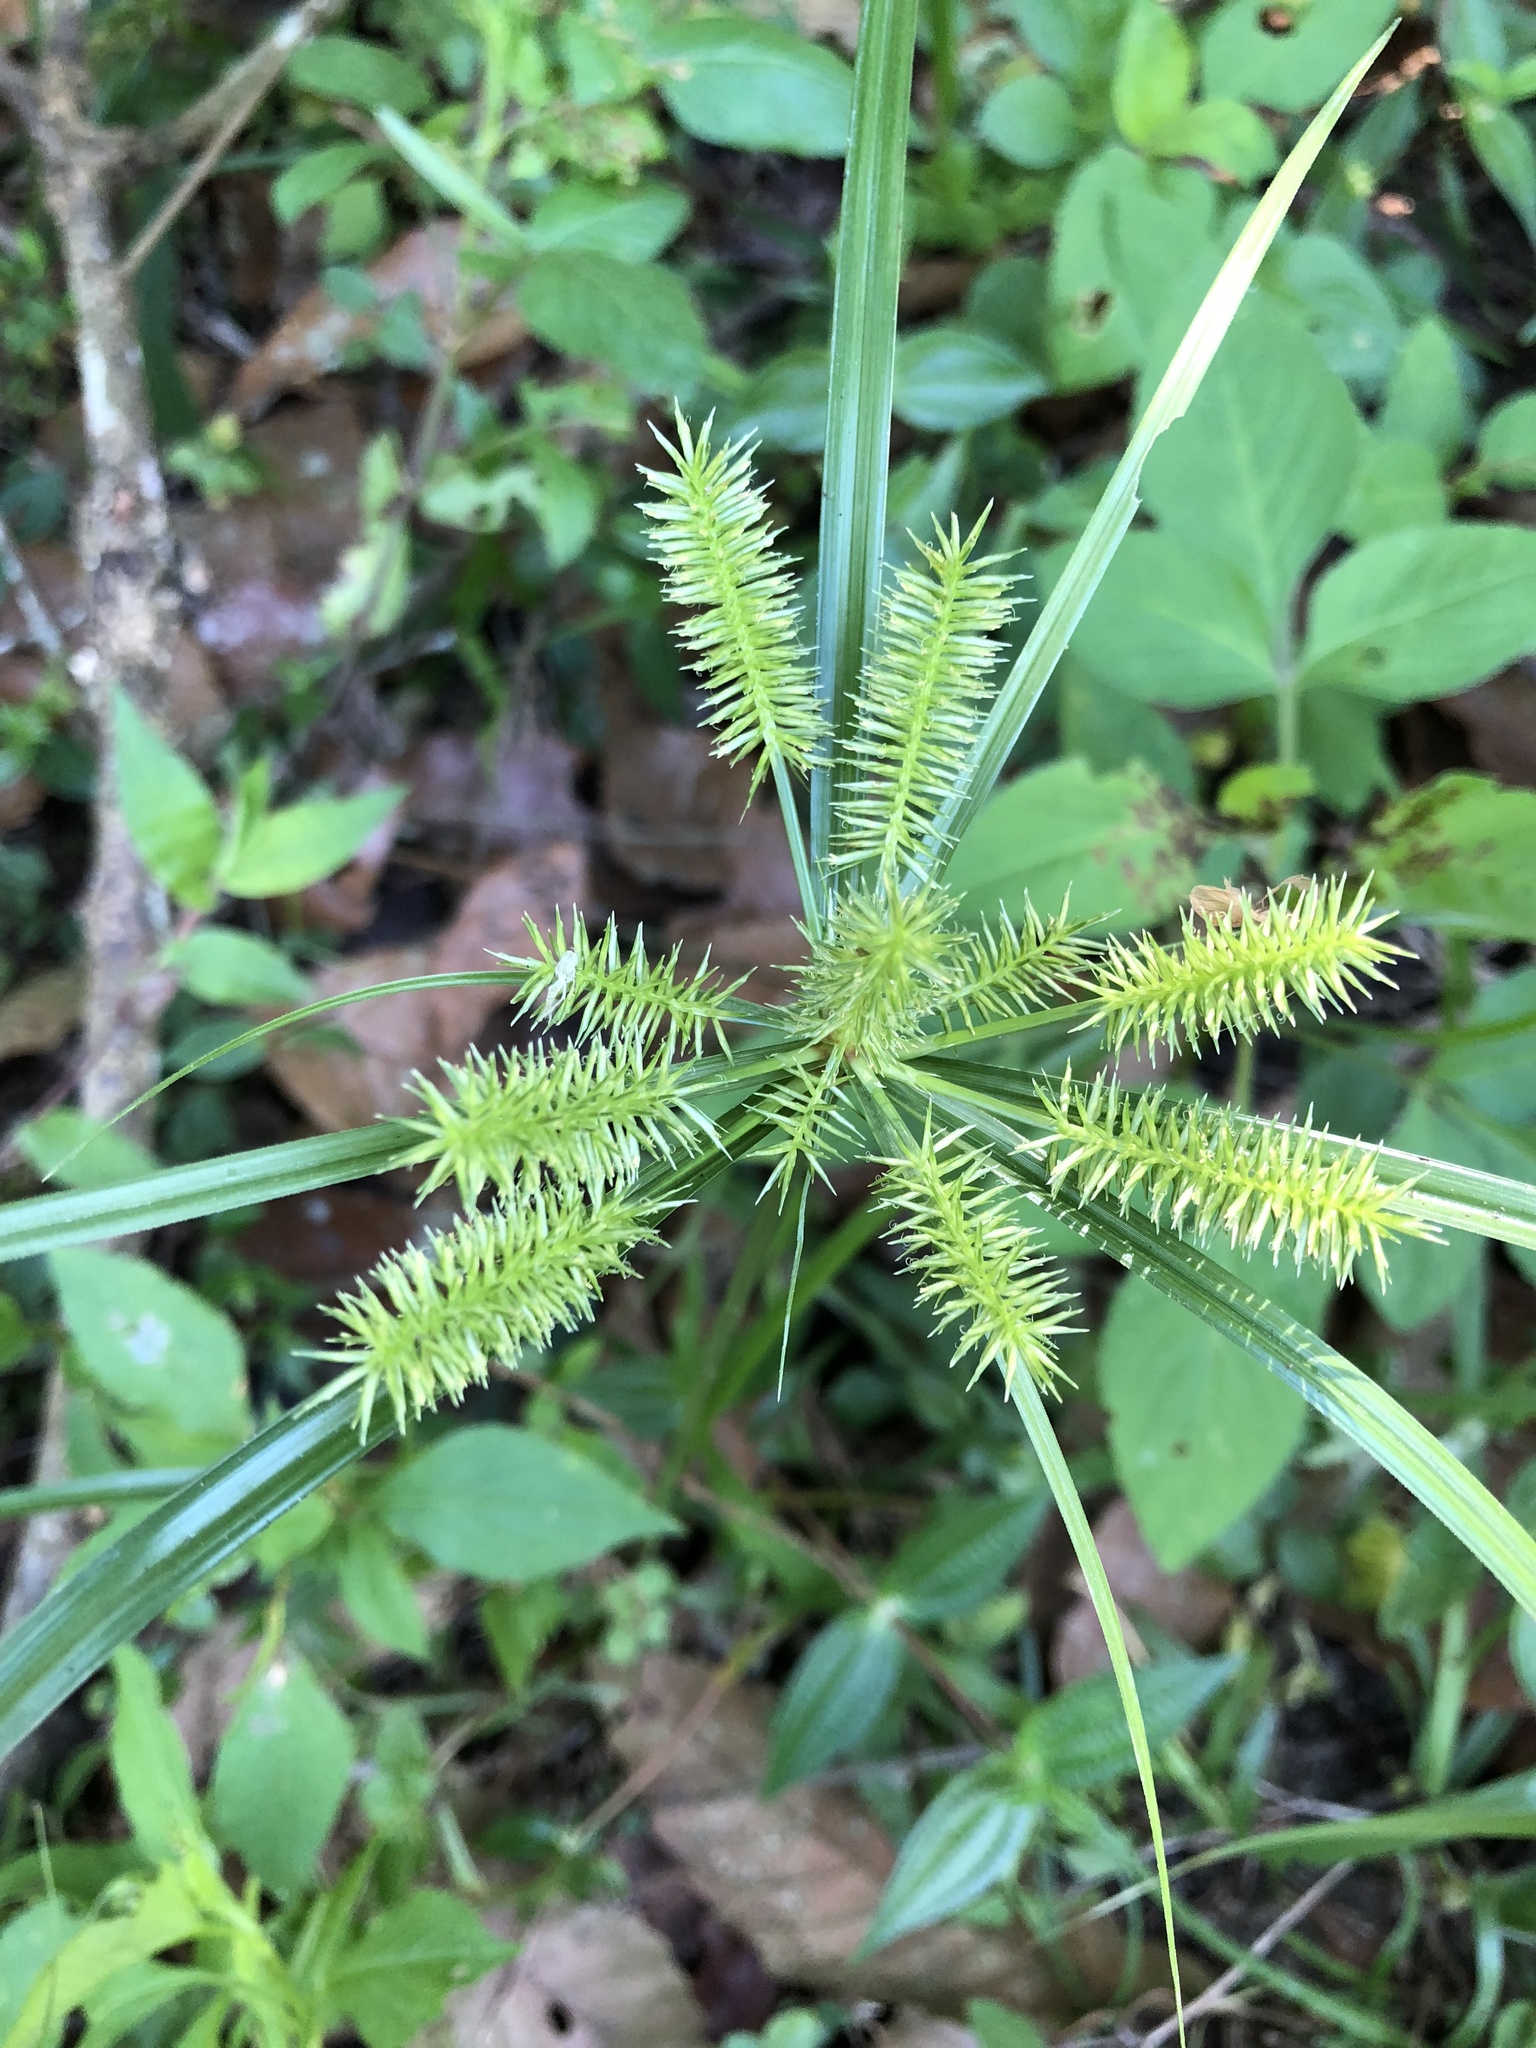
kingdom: Plantae
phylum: Tracheophyta
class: Liliopsida
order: Poales
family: Cyperaceae
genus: Cyperus
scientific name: Cyperus cyperoides
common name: Pacific island flat sedge
